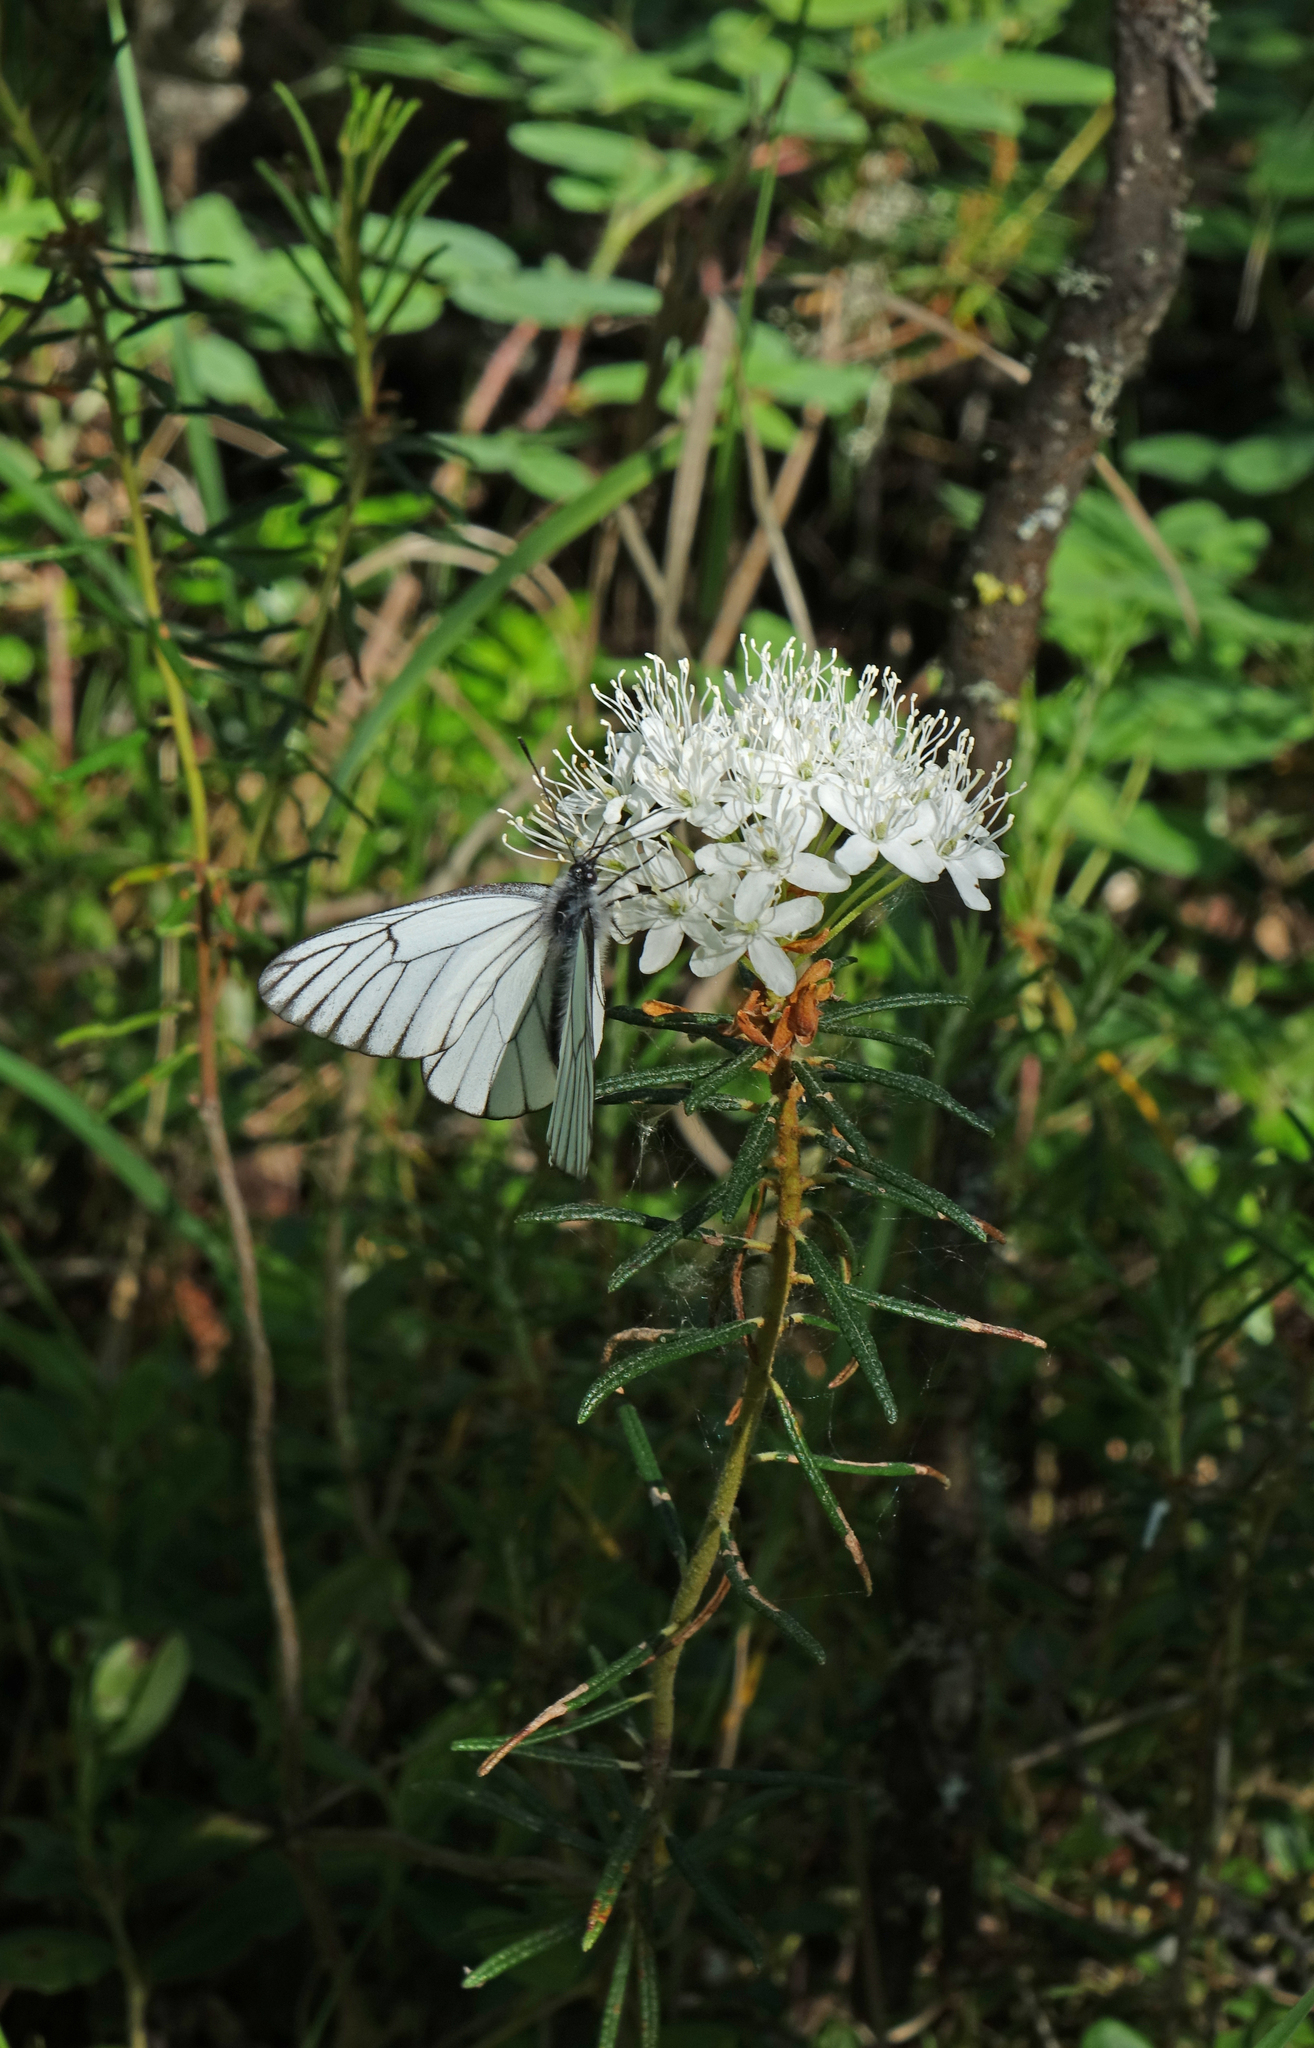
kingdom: Plantae
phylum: Tracheophyta
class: Magnoliopsida
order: Ericales
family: Ericaceae
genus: Rhododendron
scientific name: Rhododendron tomentosum
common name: Marsh labrador tea
